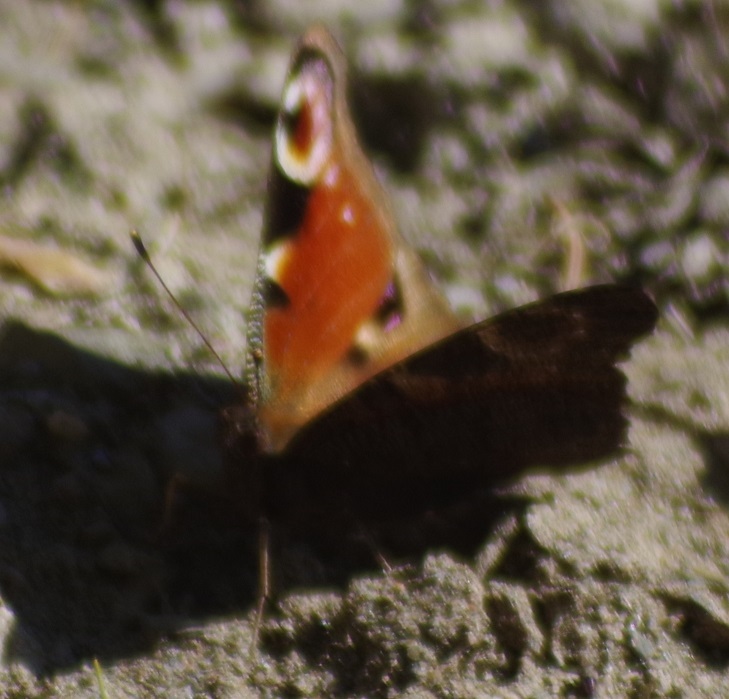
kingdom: Animalia
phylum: Arthropoda
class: Insecta
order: Lepidoptera
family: Nymphalidae
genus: Aglais
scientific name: Aglais io
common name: Peacock
